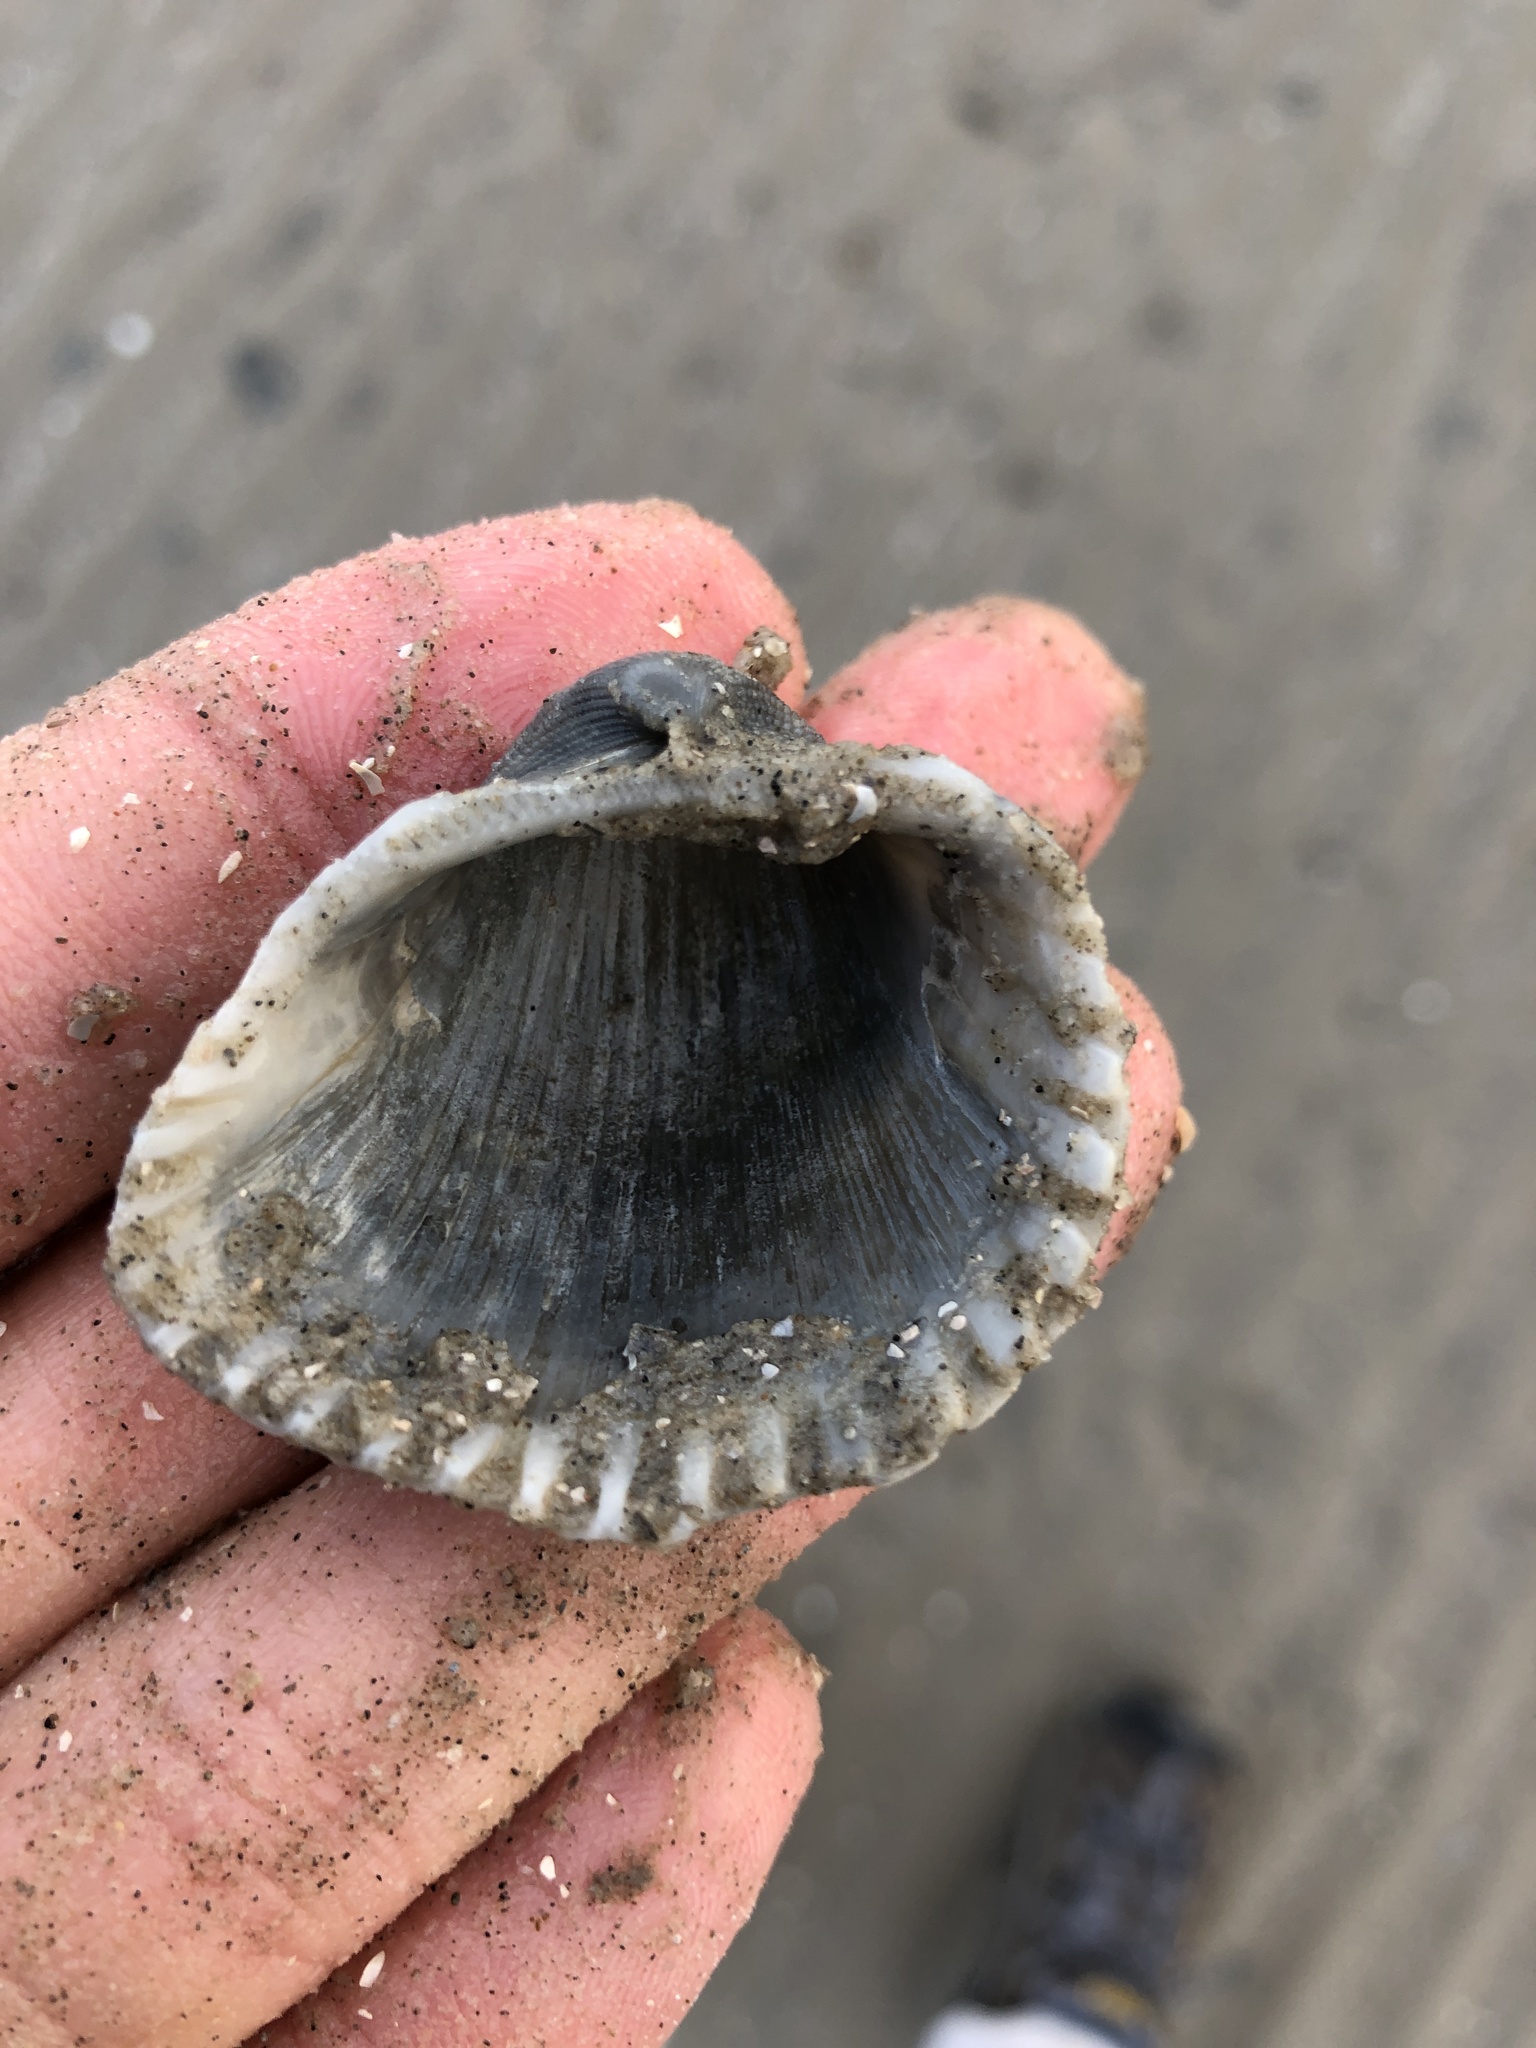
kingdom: Animalia
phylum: Mollusca
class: Bivalvia
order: Arcida
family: Arcidae
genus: Anadara
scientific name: Anadara brasiliana
